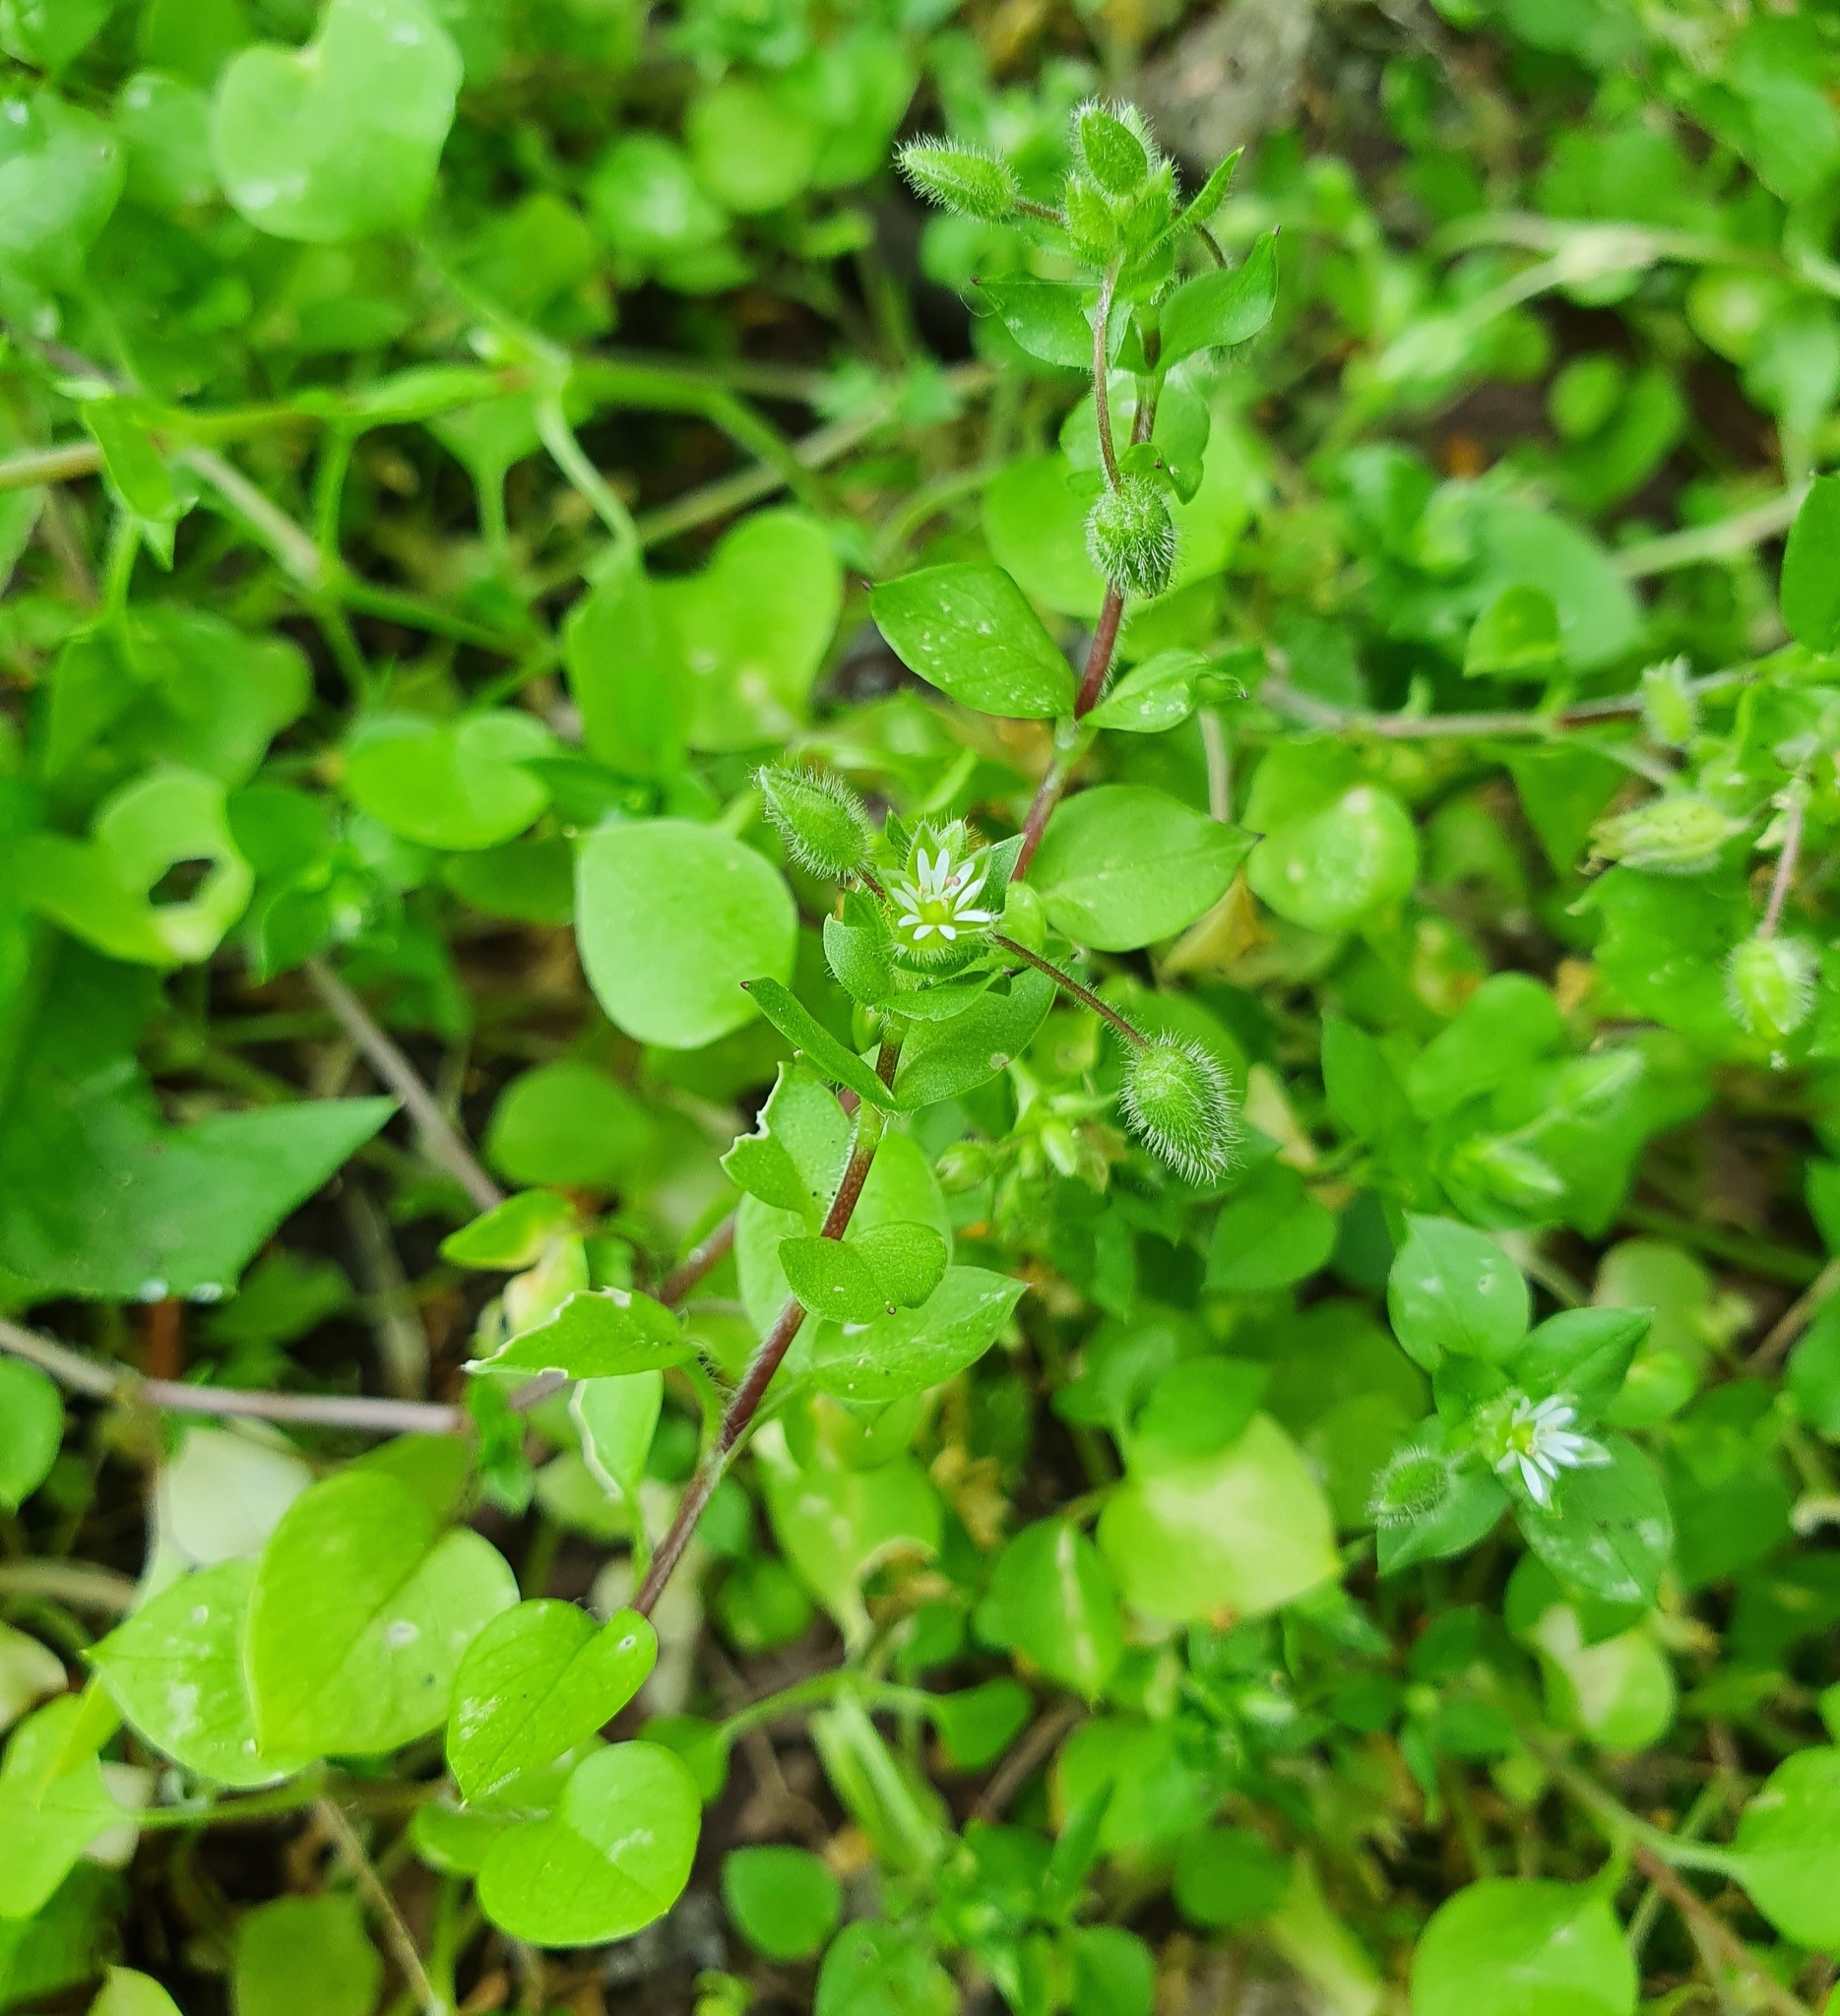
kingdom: Plantae
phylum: Tracheophyta
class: Magnoliopsida
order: Caryophyllales
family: Caryophyllaceae
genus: Stellaria
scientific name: Stellaria media
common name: Common chickweed
